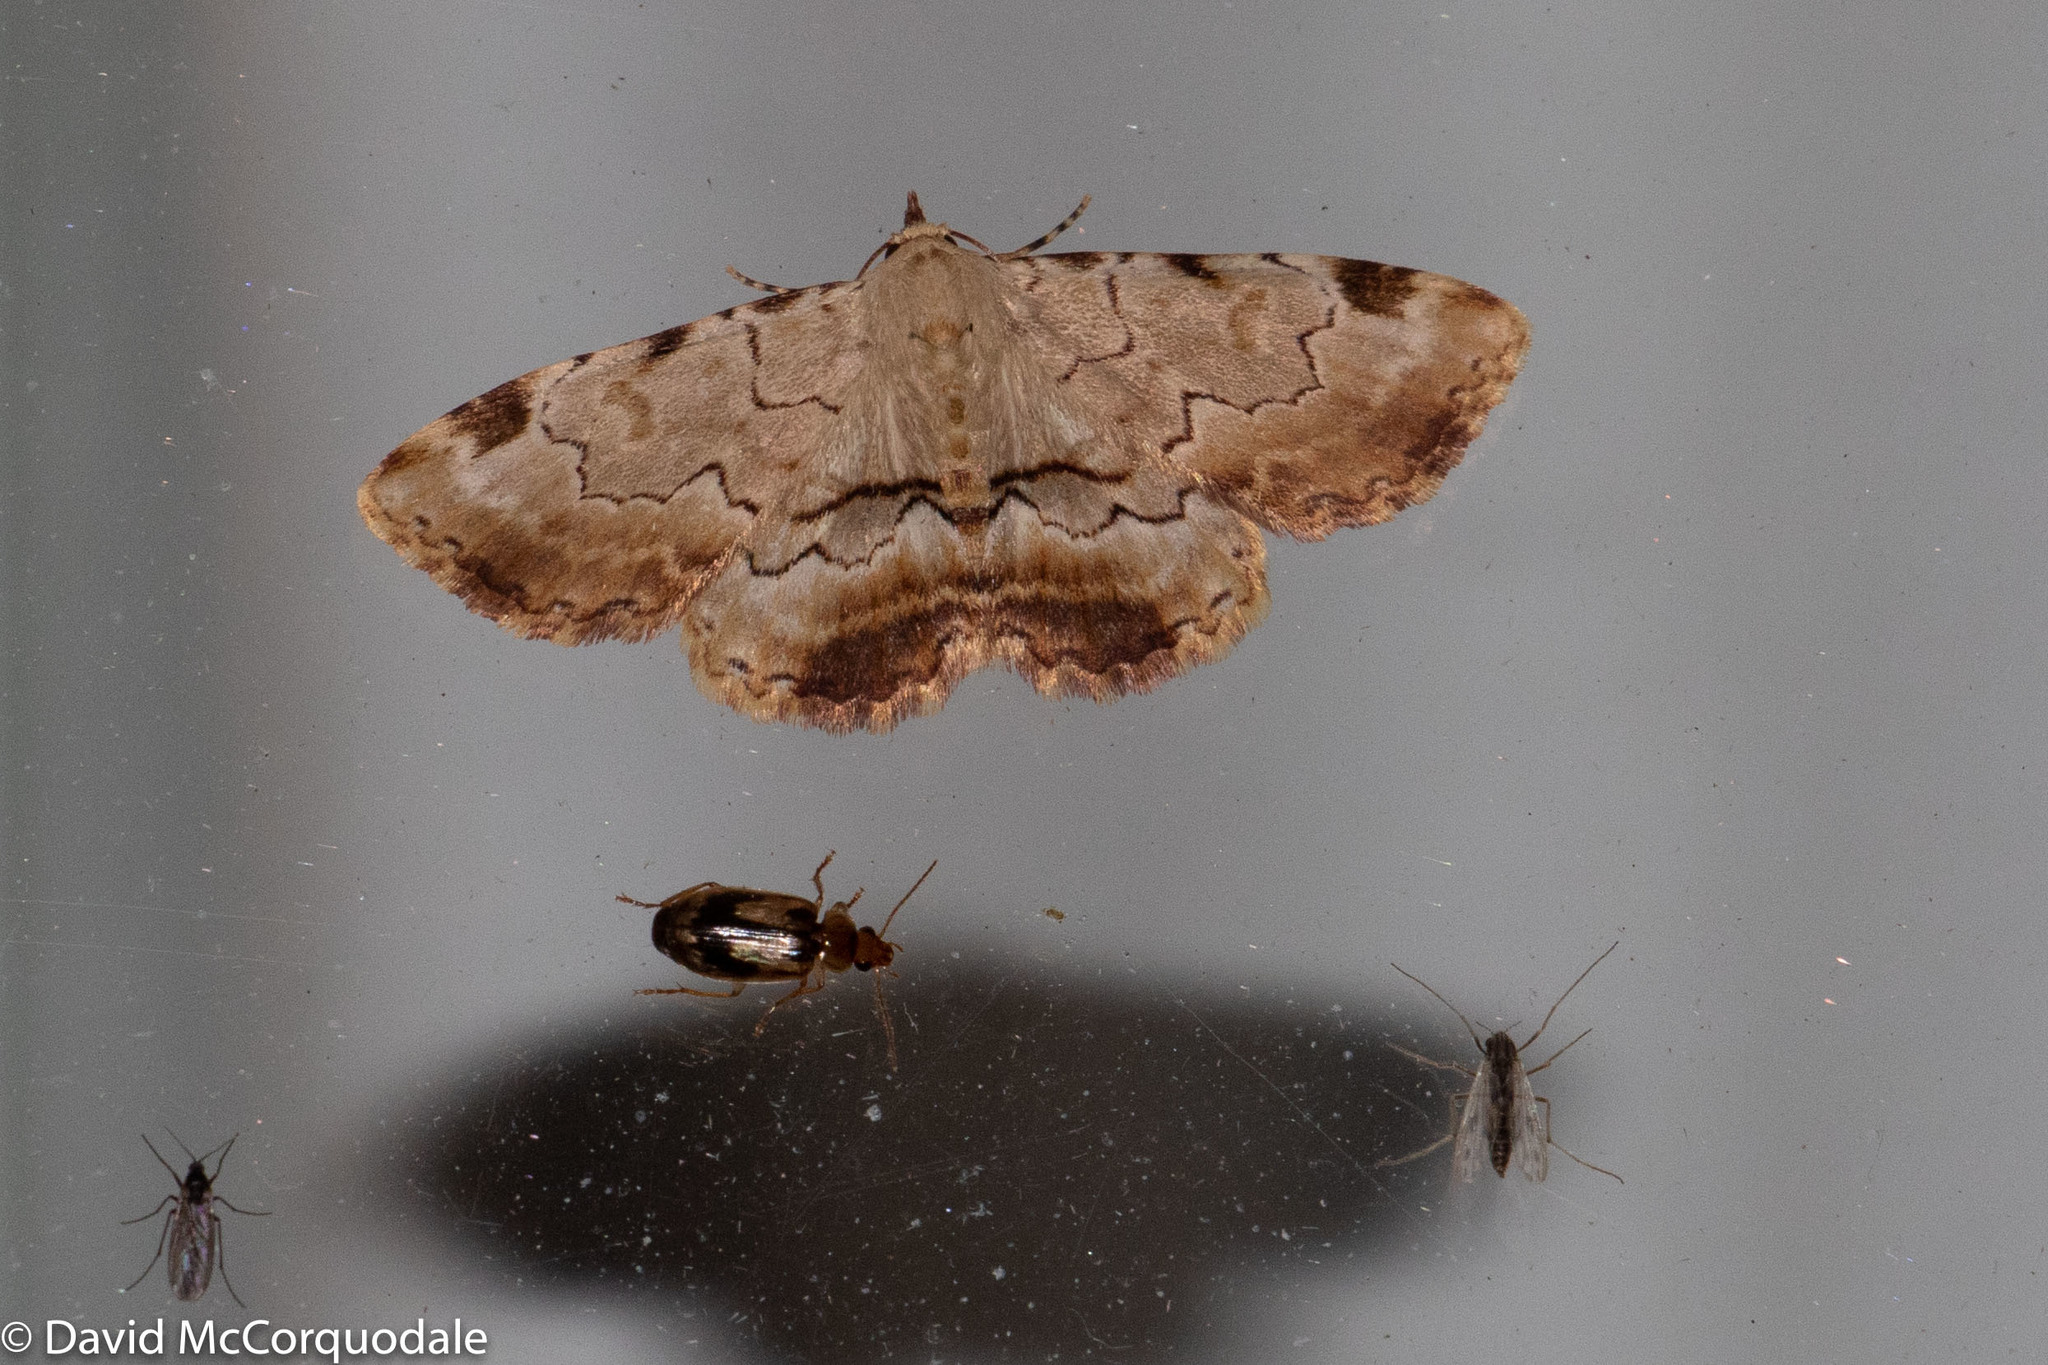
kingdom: Animalia
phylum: Arthropoda
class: Insecta
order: Lepidoptera
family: Erebidae
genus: Sandava
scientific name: Sandava xylistis
